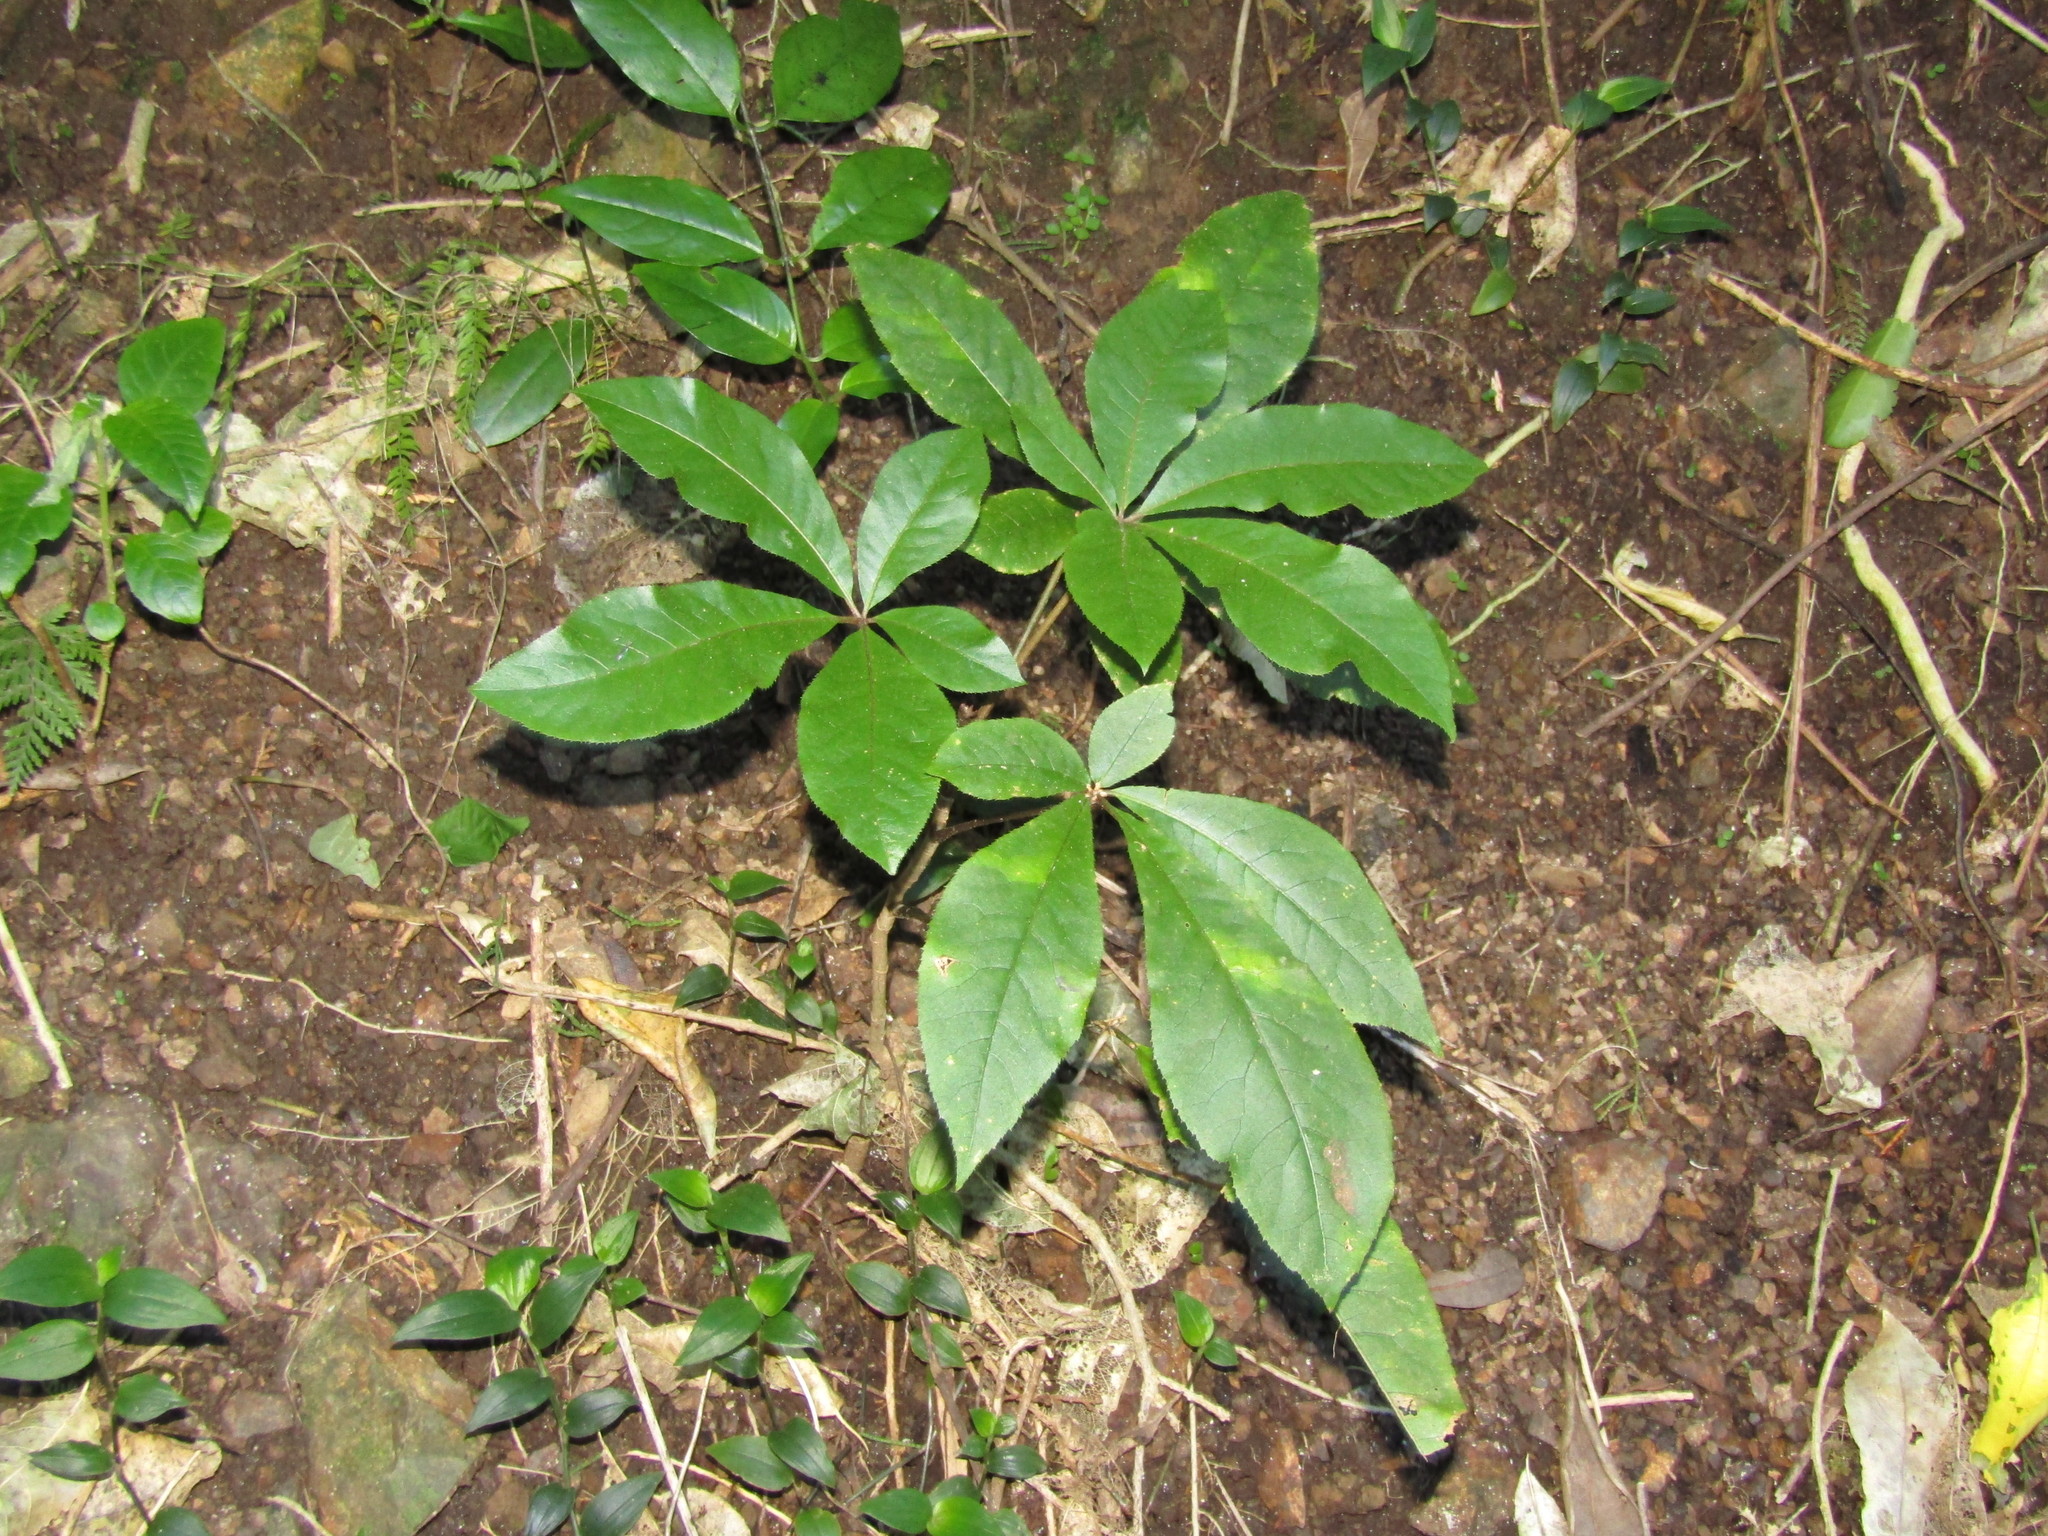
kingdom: Plantae
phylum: Tracheophyta
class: Magnoliopsida
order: Apiales
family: Araliaceae
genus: Schefflera
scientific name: Schefflera digitata
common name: Pate
